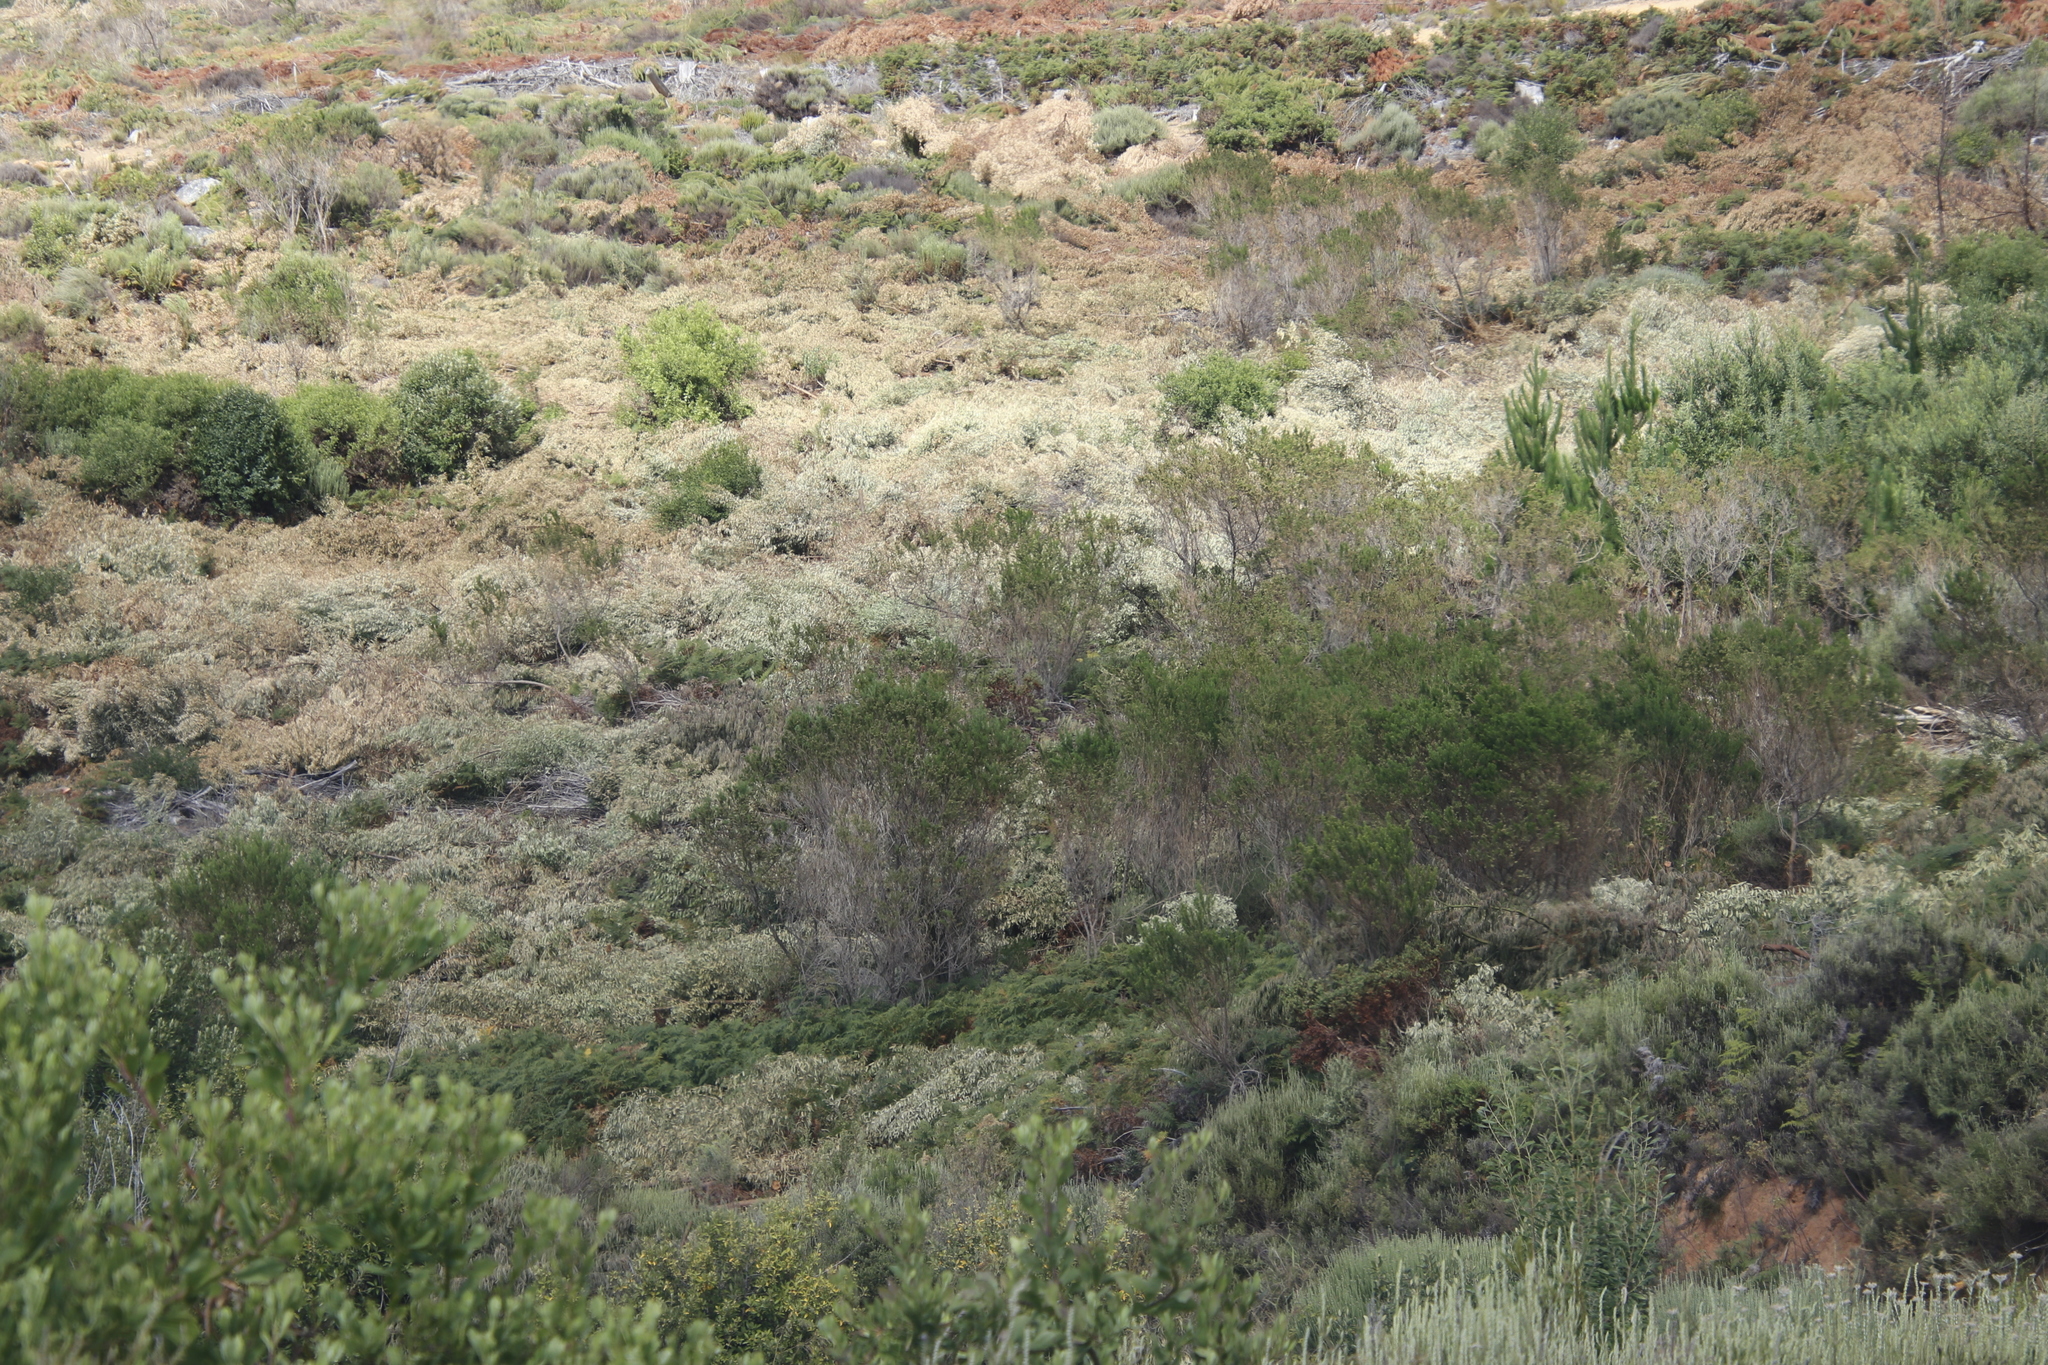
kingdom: Plantae
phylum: Tracheophyta
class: Magnoliopsida
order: Fabales
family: Fabaceae
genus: Psoralea
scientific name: Psoralea pinnata
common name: African scurfpea
